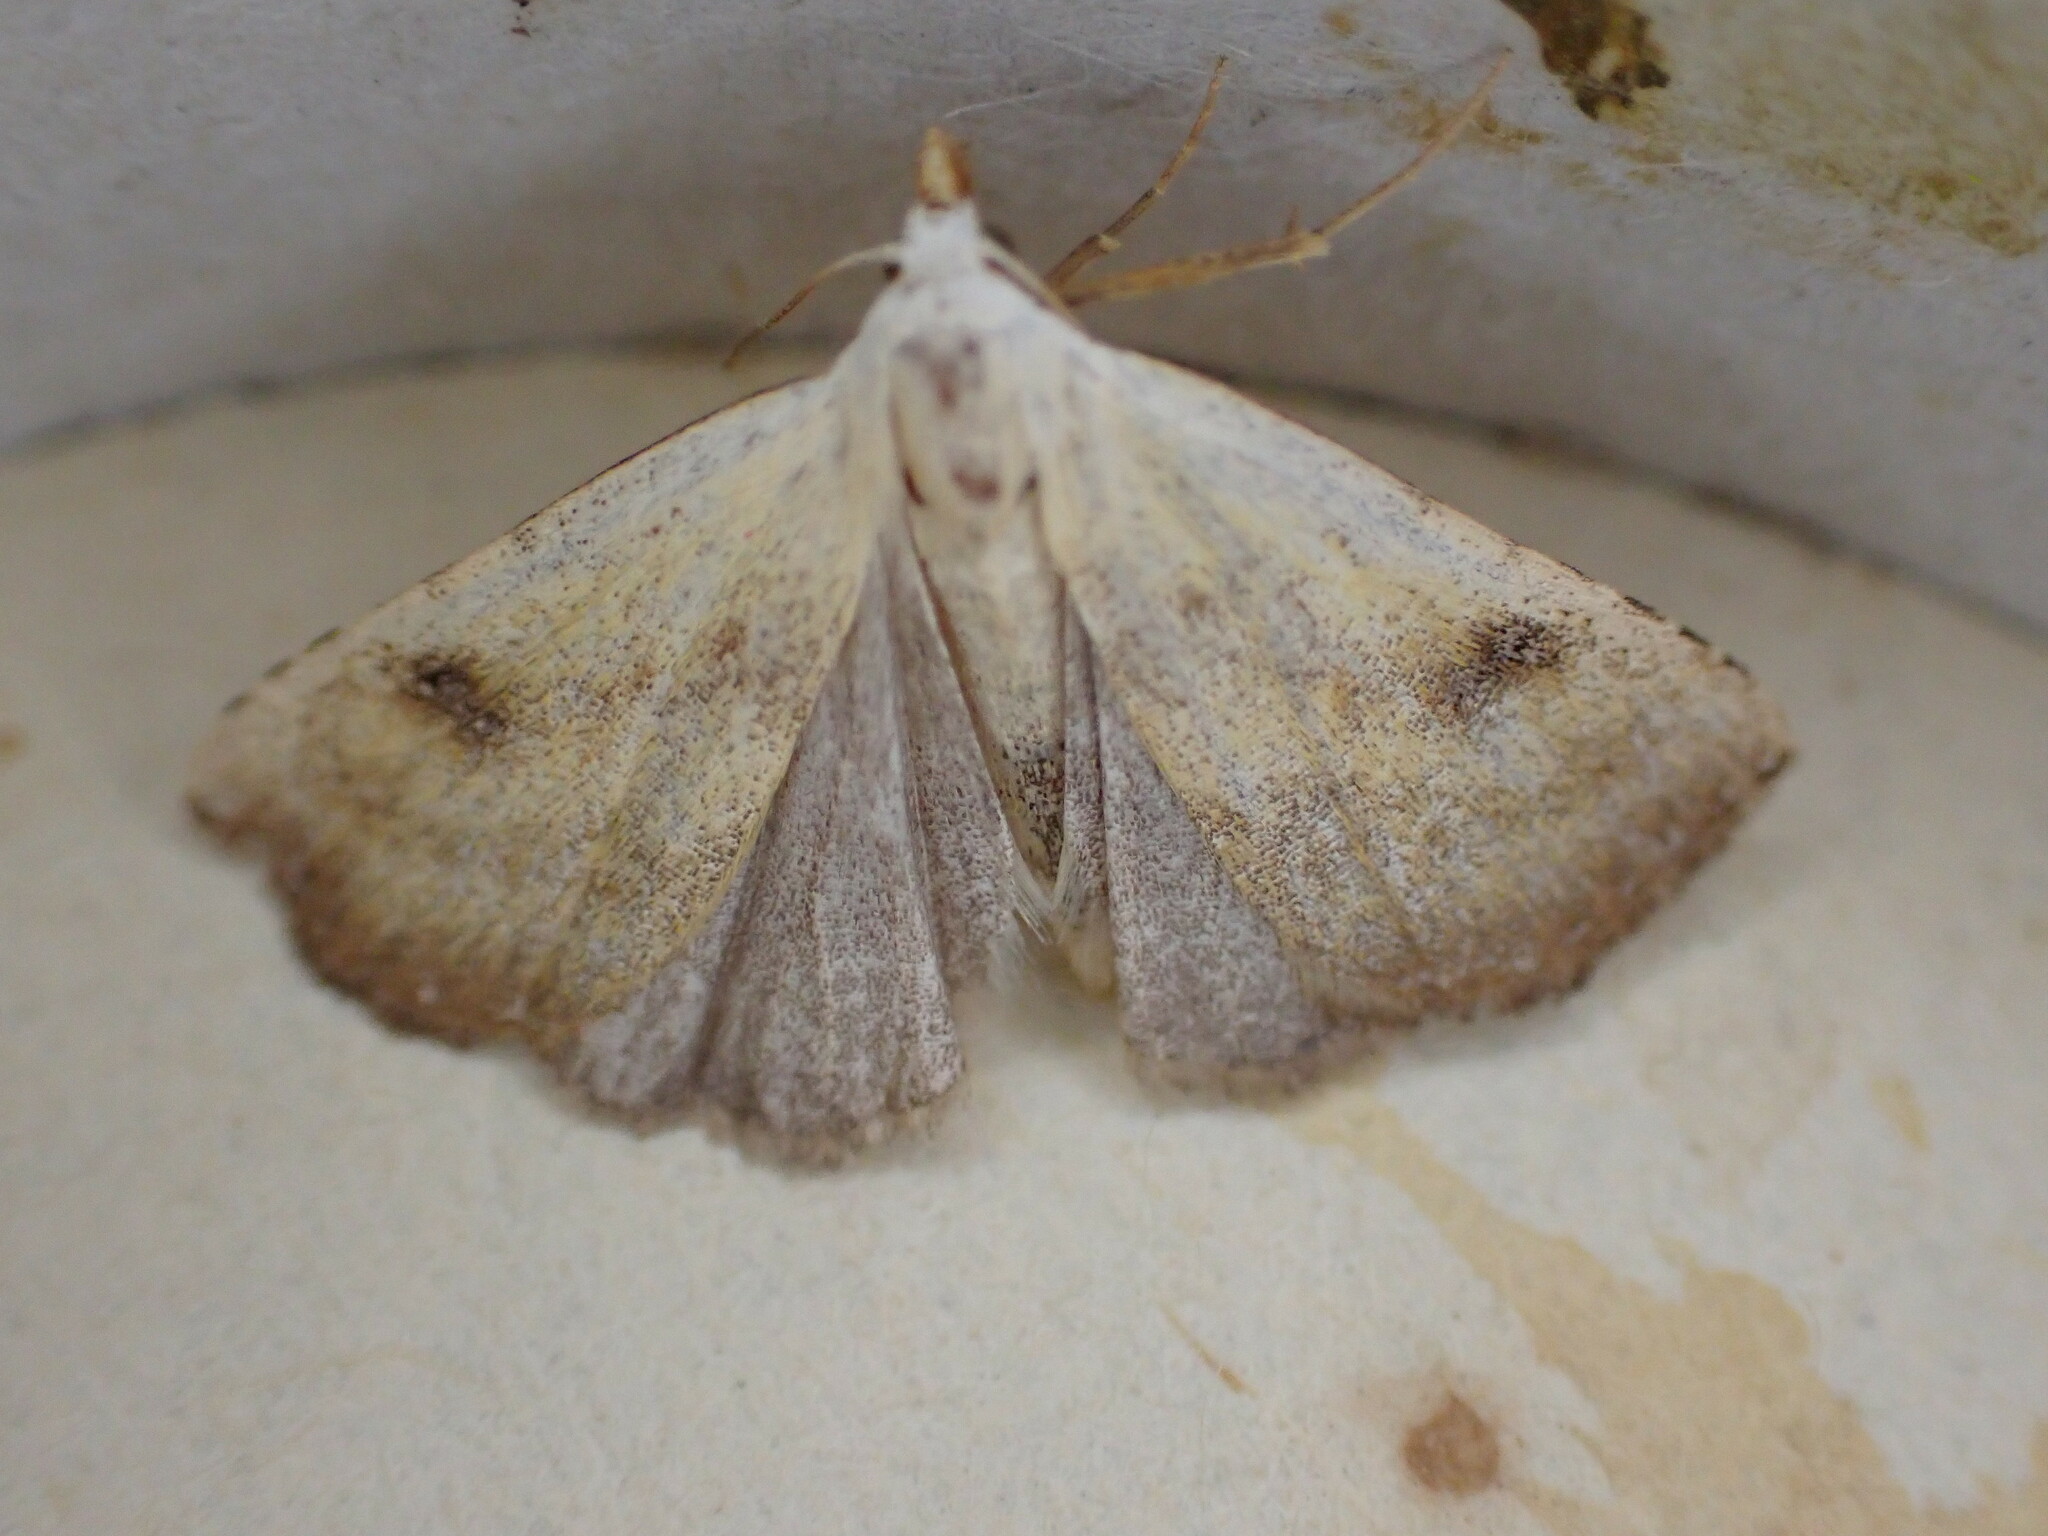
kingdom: Animalia
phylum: Arthropoda
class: Insecta
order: Lepidoptera
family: Erebidae
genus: Rivula
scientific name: Rivula sericealis
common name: Straw dot
